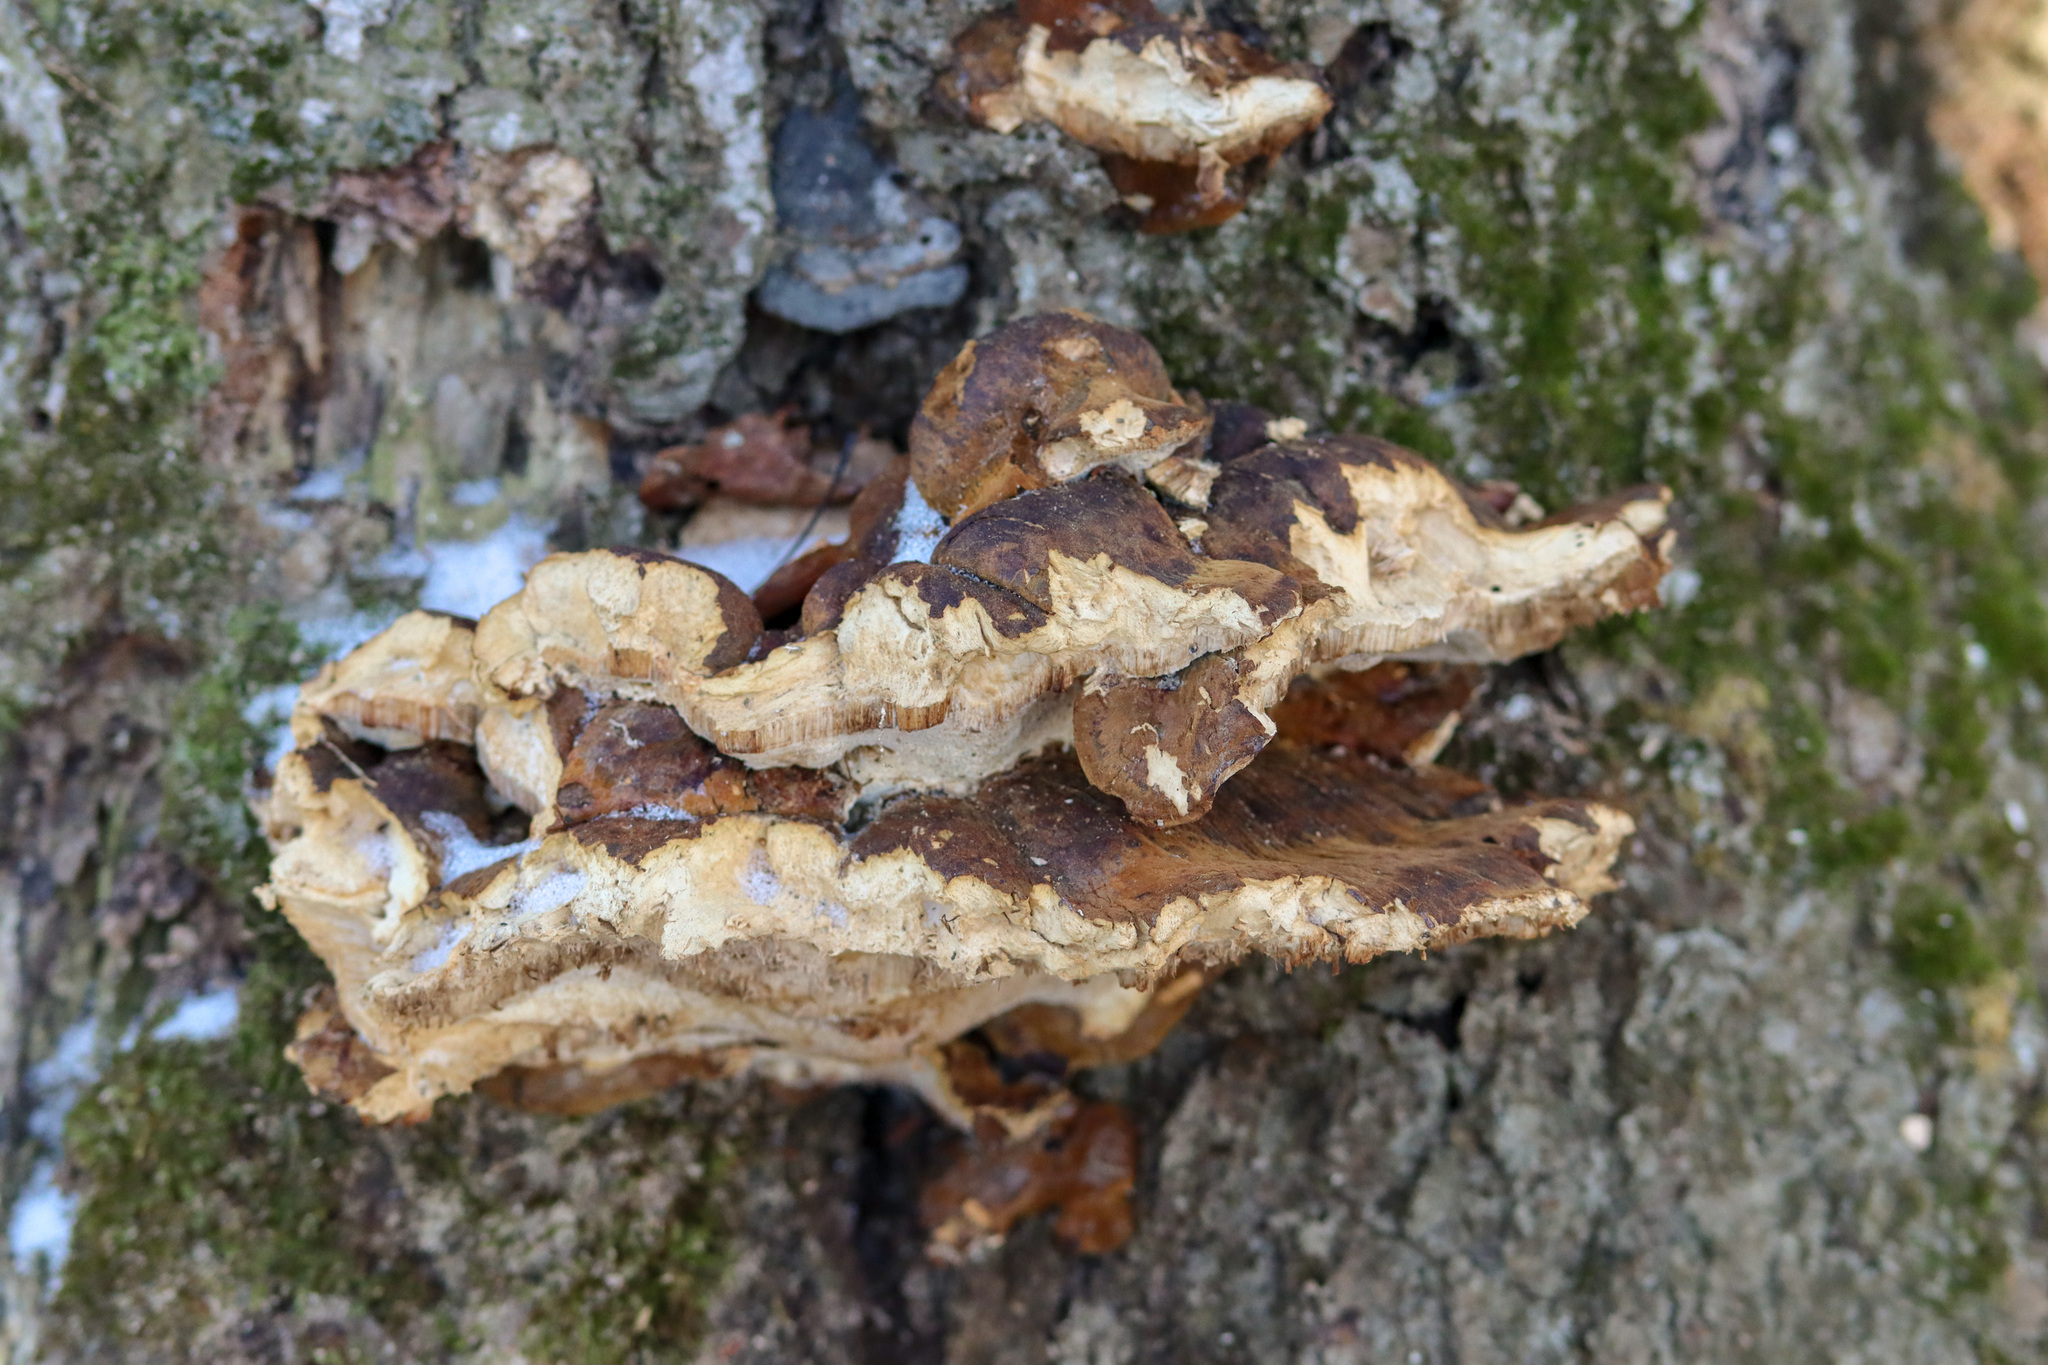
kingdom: Fungi
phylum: Basidiomycota
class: Agaricomycetes
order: Polyporales
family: Ischnodermataceae
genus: Ischnoderma
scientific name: Ischnoderma resinosum
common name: Resinous polypore
